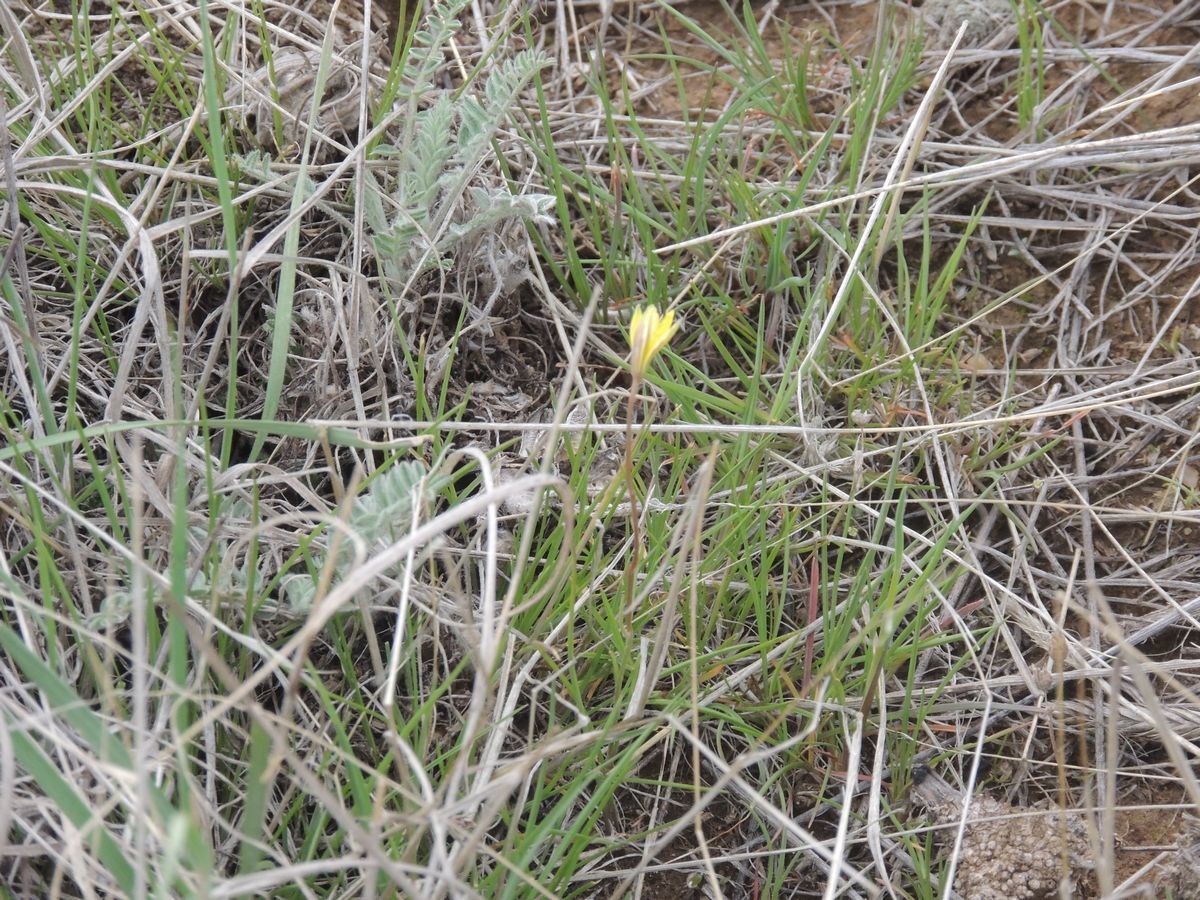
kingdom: Plantae
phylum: Tracheophyta
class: Liliopsida
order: Liliales
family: Liliaceae
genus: Gagea
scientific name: Gagea bulbifera
